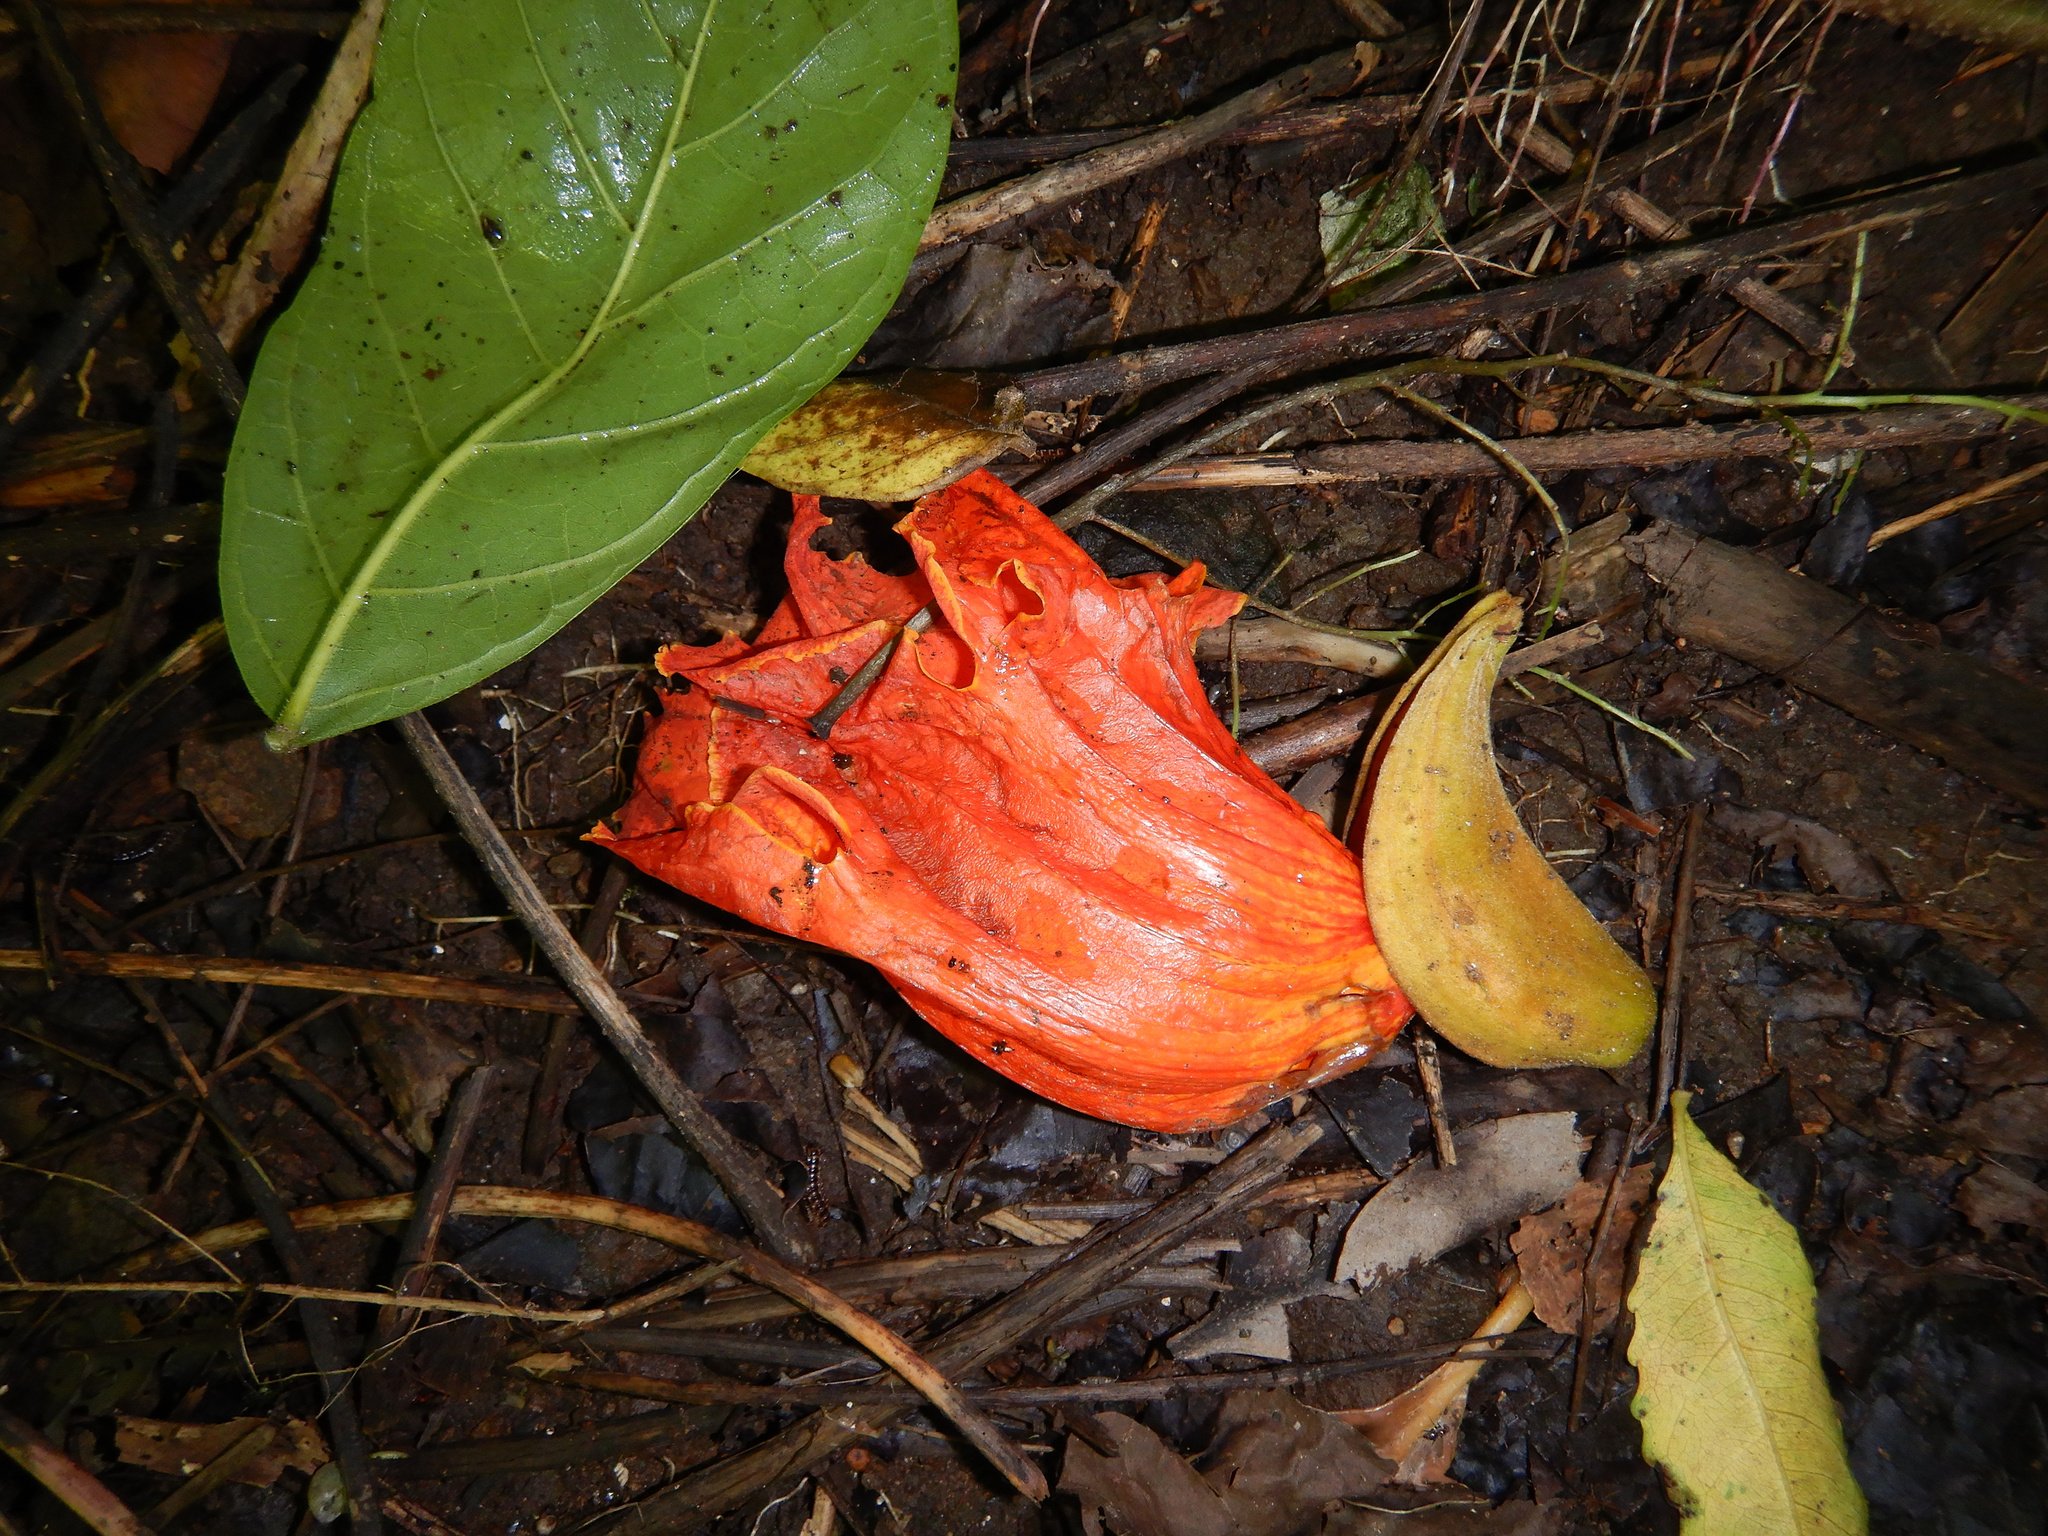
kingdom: Plantae
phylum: Tracheophyta
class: Magnoliopsida
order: Lamiales
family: Bignoniaceae
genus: Spathodea
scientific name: Spathodea campanulata
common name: African tuliptree
